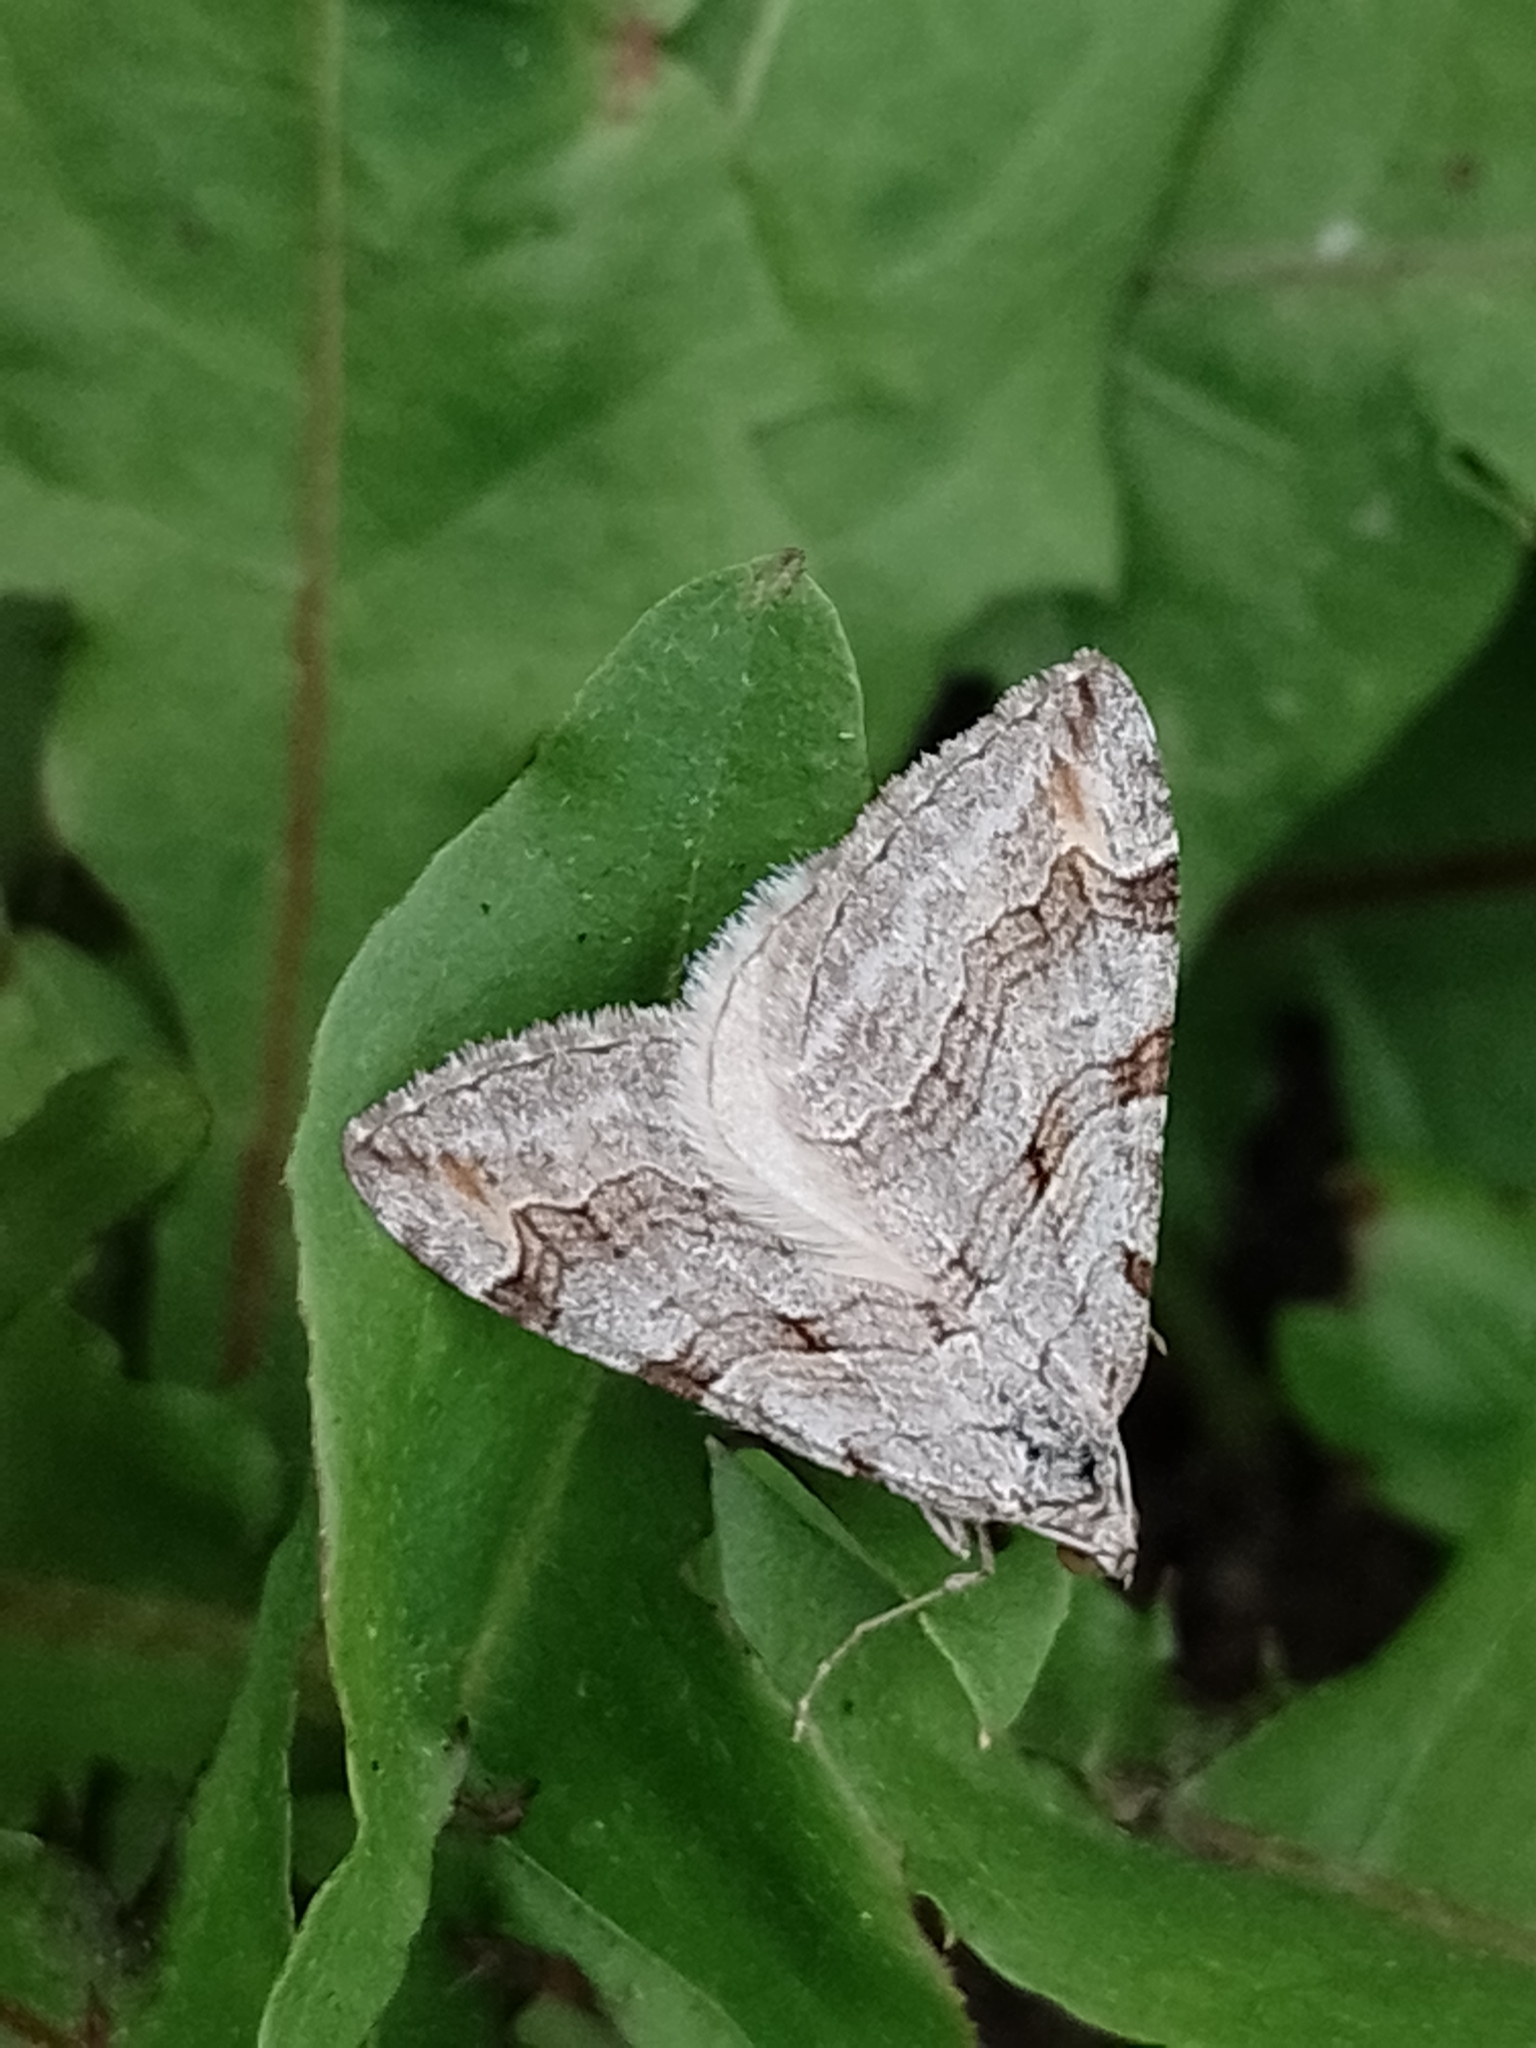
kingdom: Animalia
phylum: Arthropoda
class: Insecta
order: Lepidoptera
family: Geometridae
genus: Aplocera
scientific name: Aplocera plagiata
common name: Treble-bar
